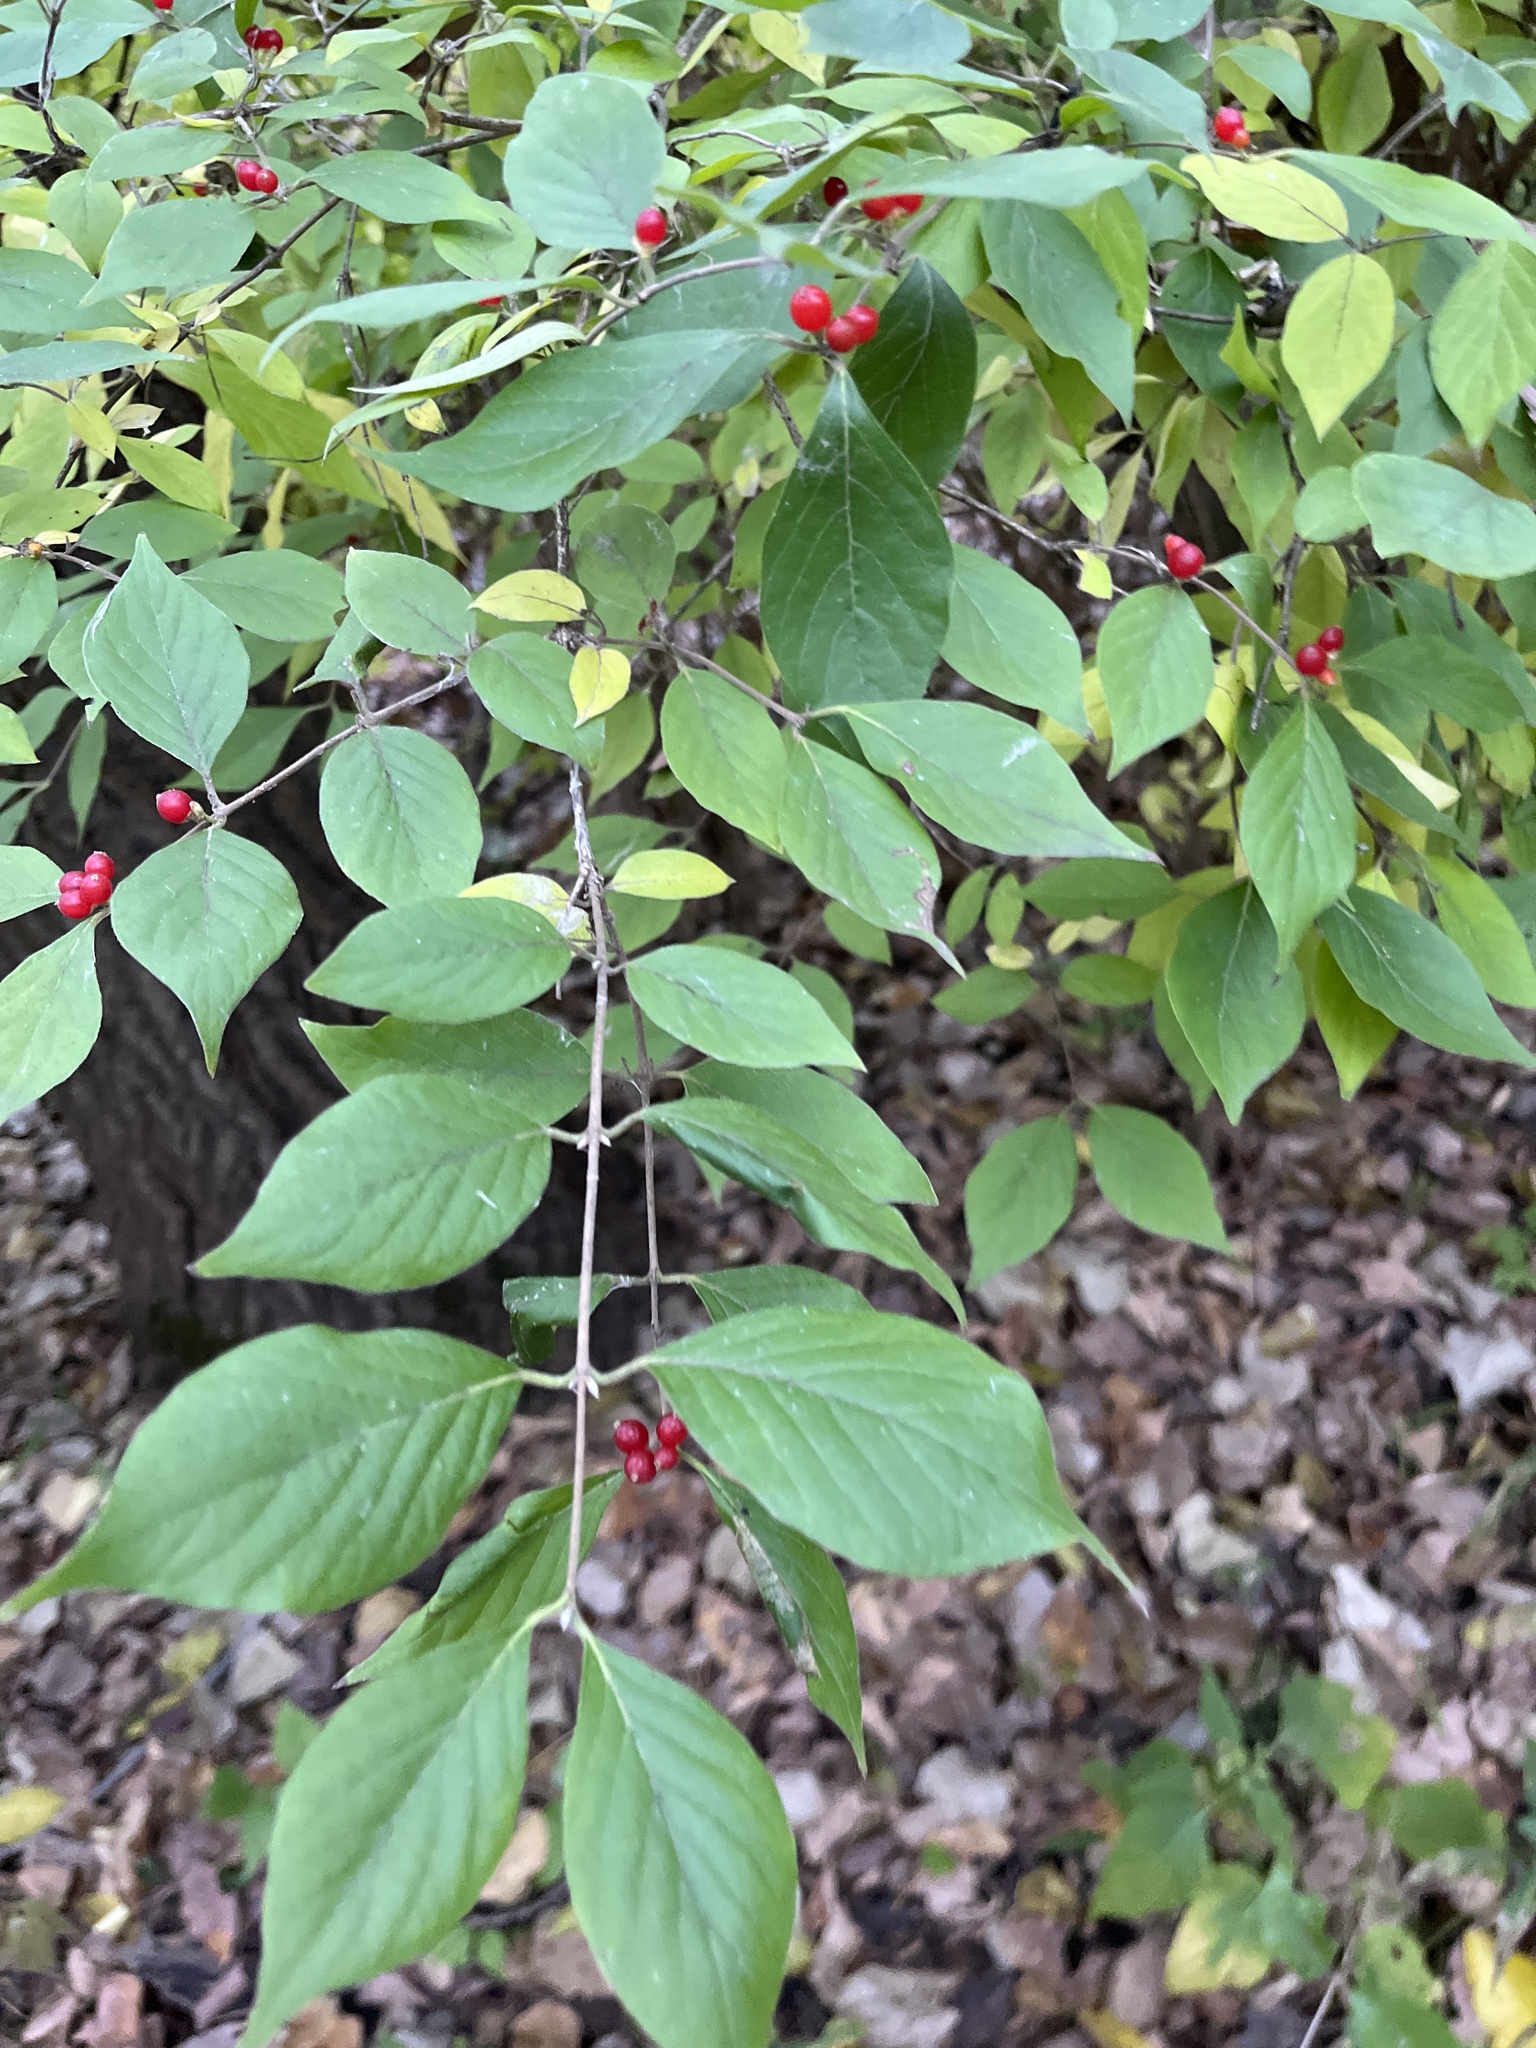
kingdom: Plantae
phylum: Tracheophyta
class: Magnoliopsida
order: Dipsacales
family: Caprifoliaceae
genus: Lonicera
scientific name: Lonicera maackii
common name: Amur honeysuckle
